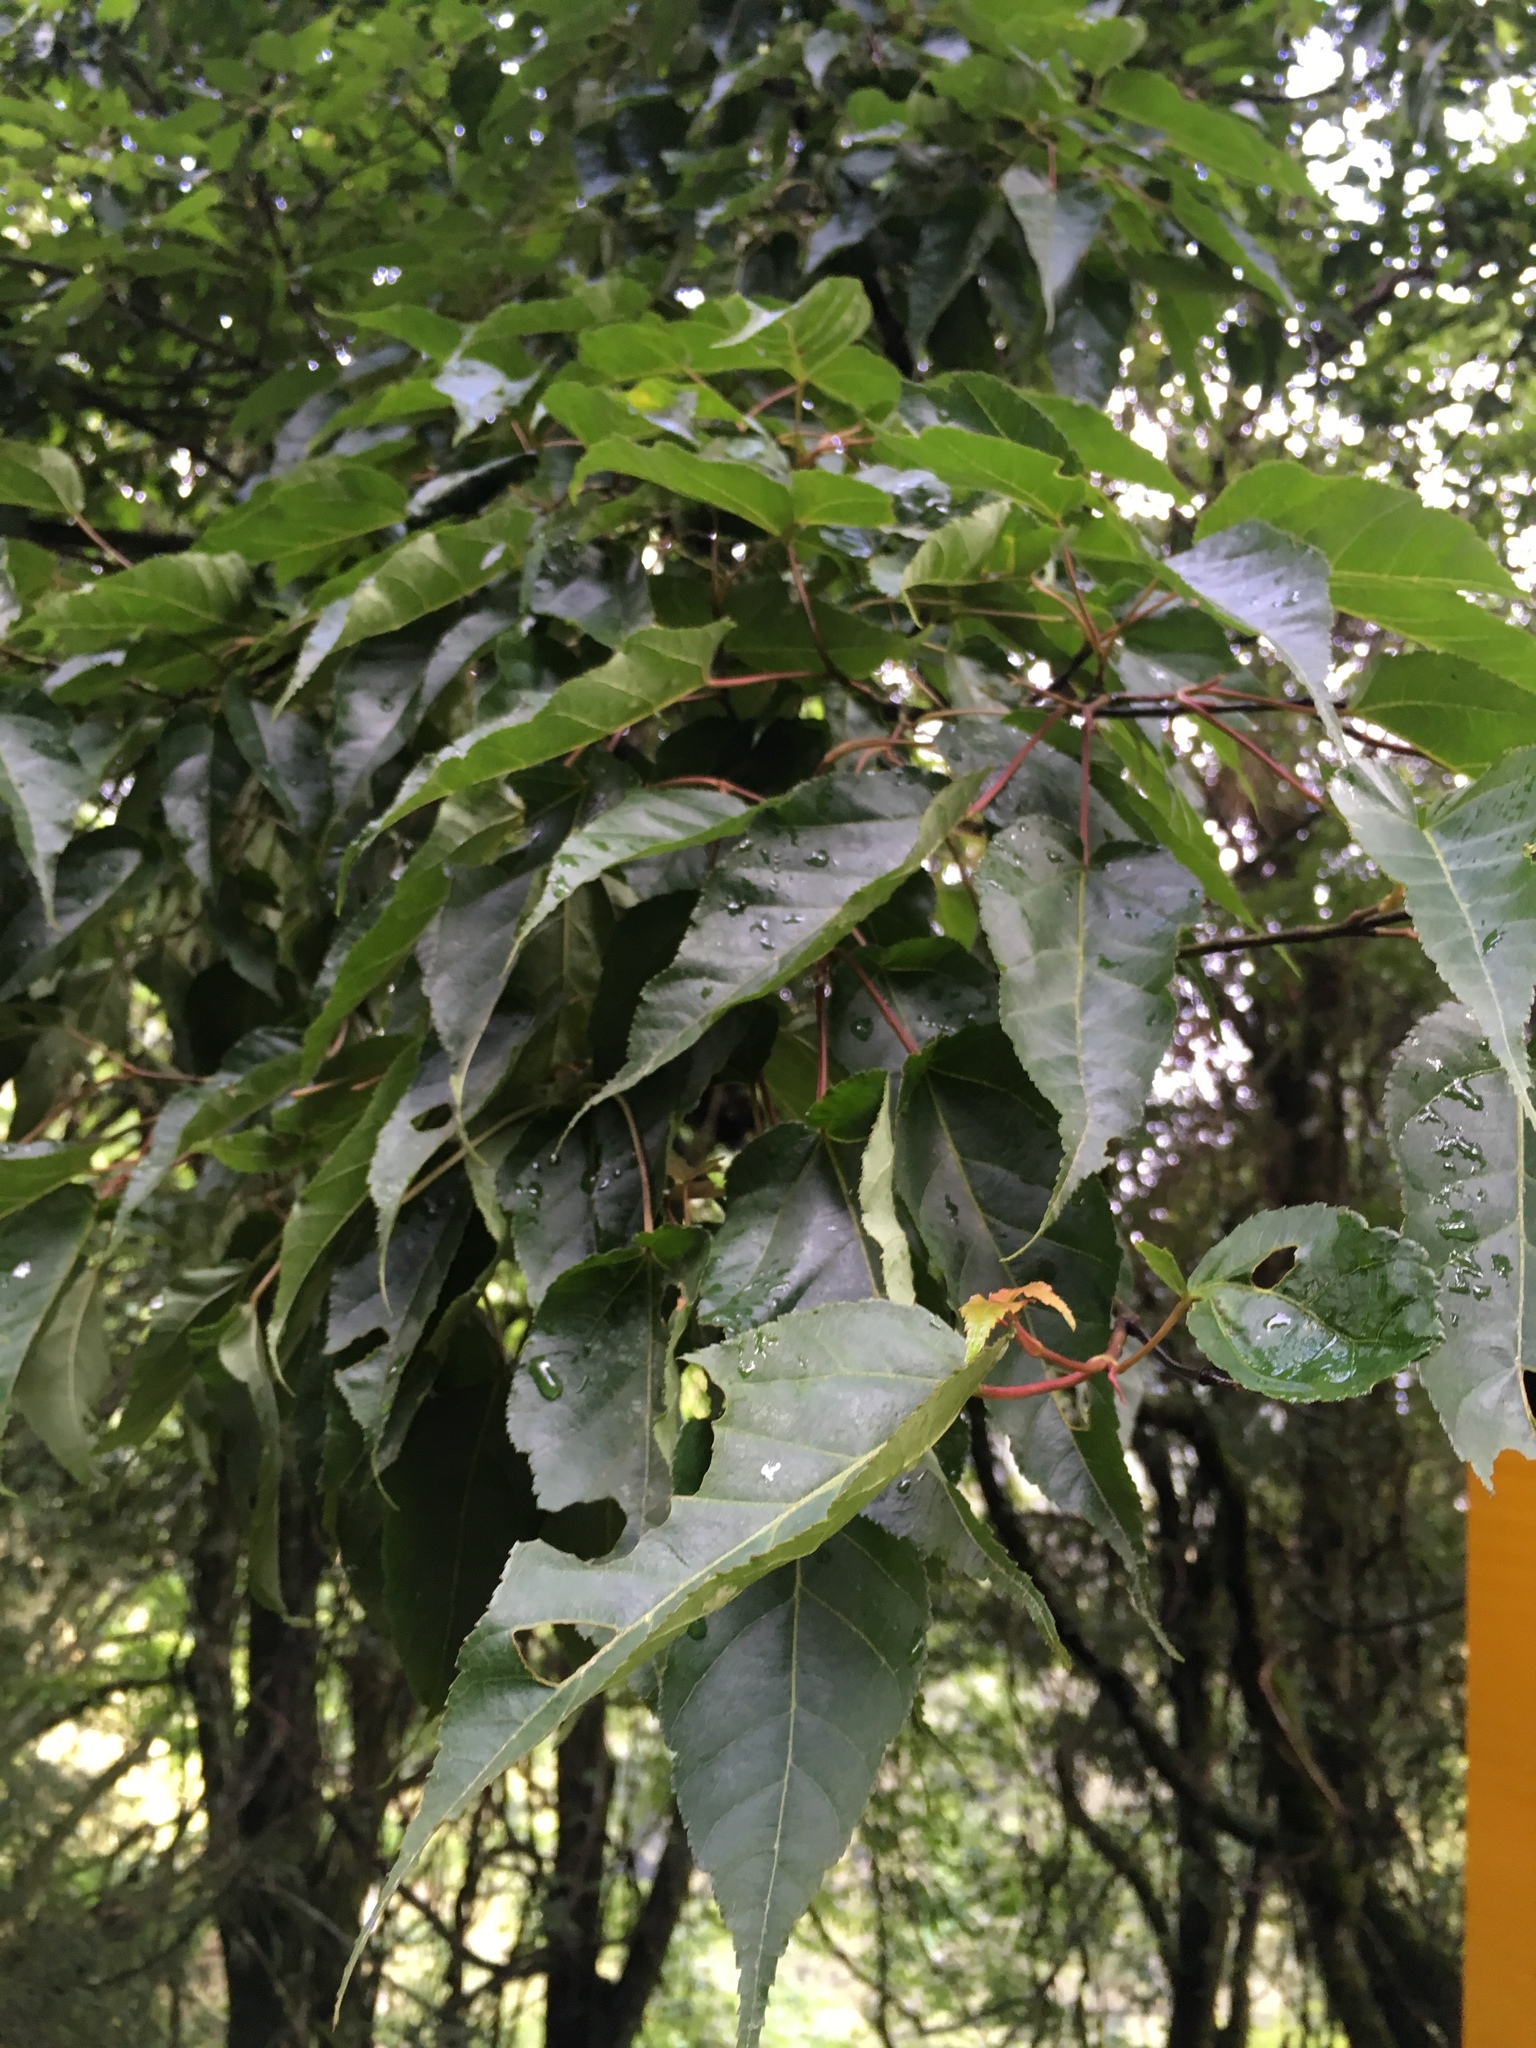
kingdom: Plantae
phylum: Tracheophyta
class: Magnoliopsida
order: Sapindales
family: Sapindaceae
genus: Acer
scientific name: Acer caudatifolium
